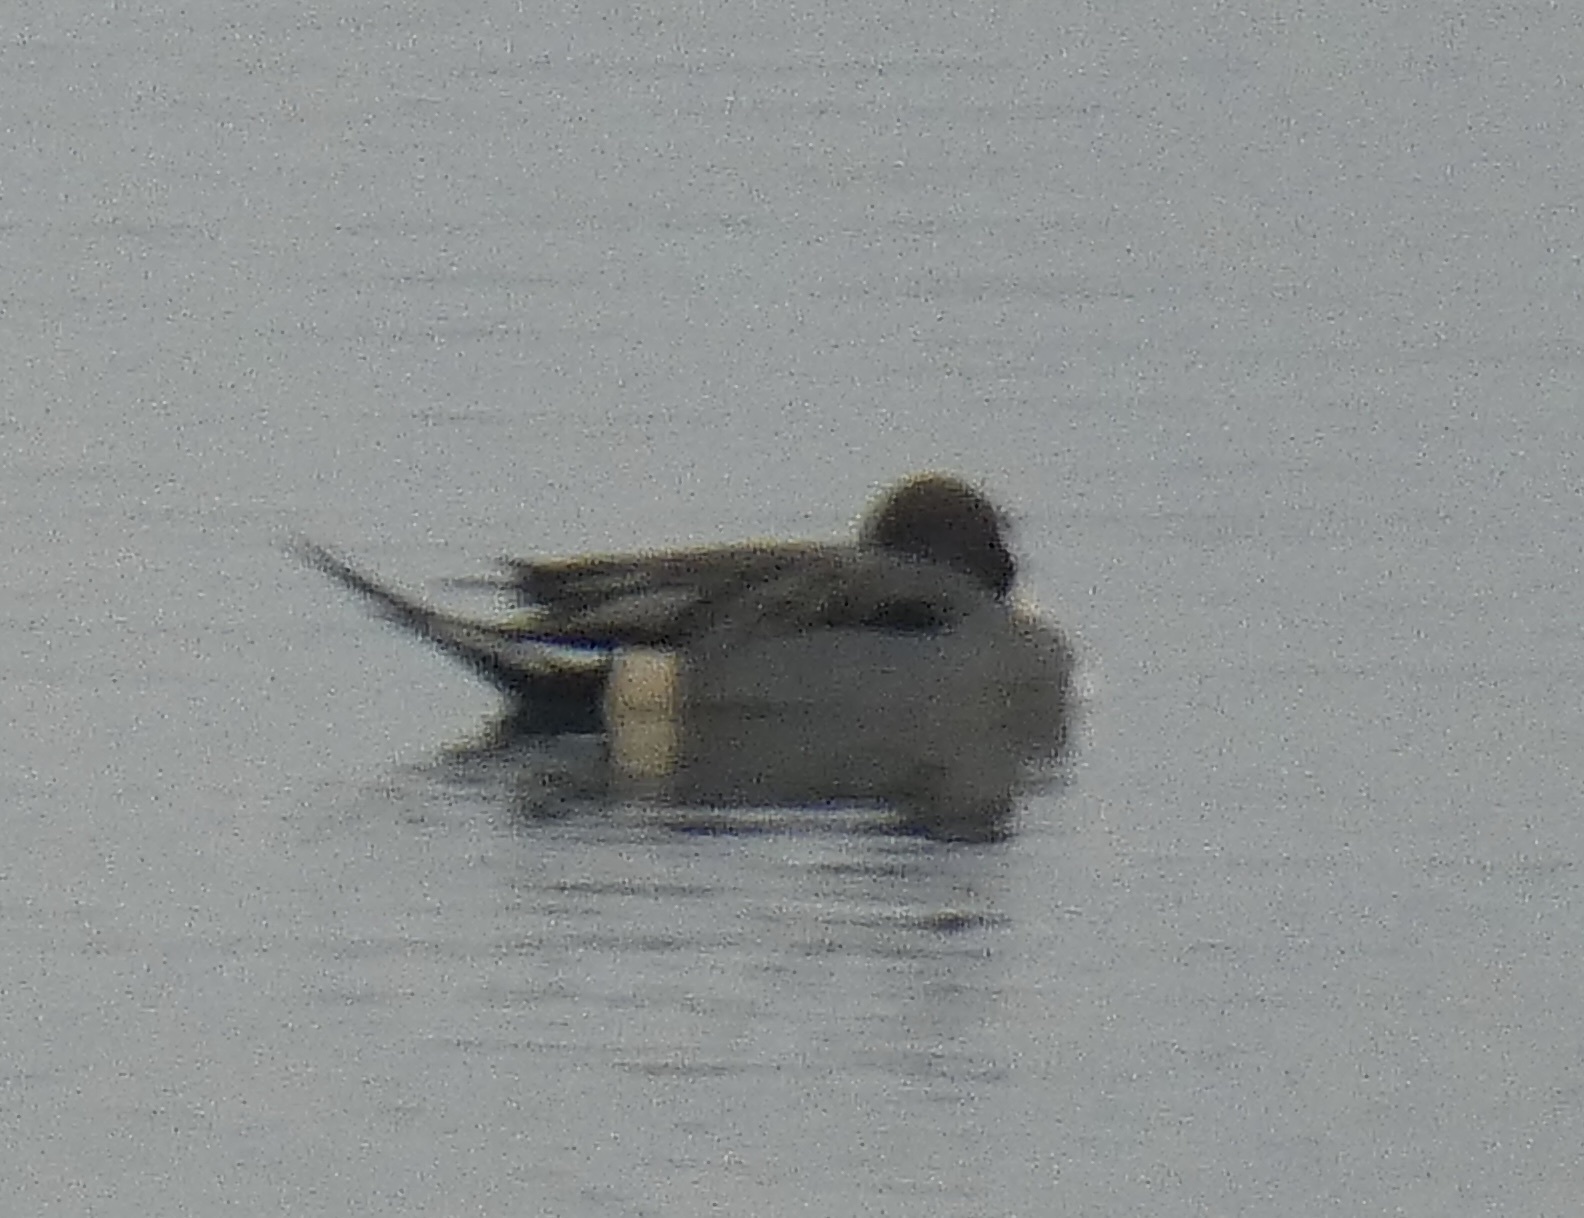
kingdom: Animalia
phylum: Chordata
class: Aves
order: Anseriformes
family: Anatidae
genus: Anas
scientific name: Anas acuta
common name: Northern pintail
